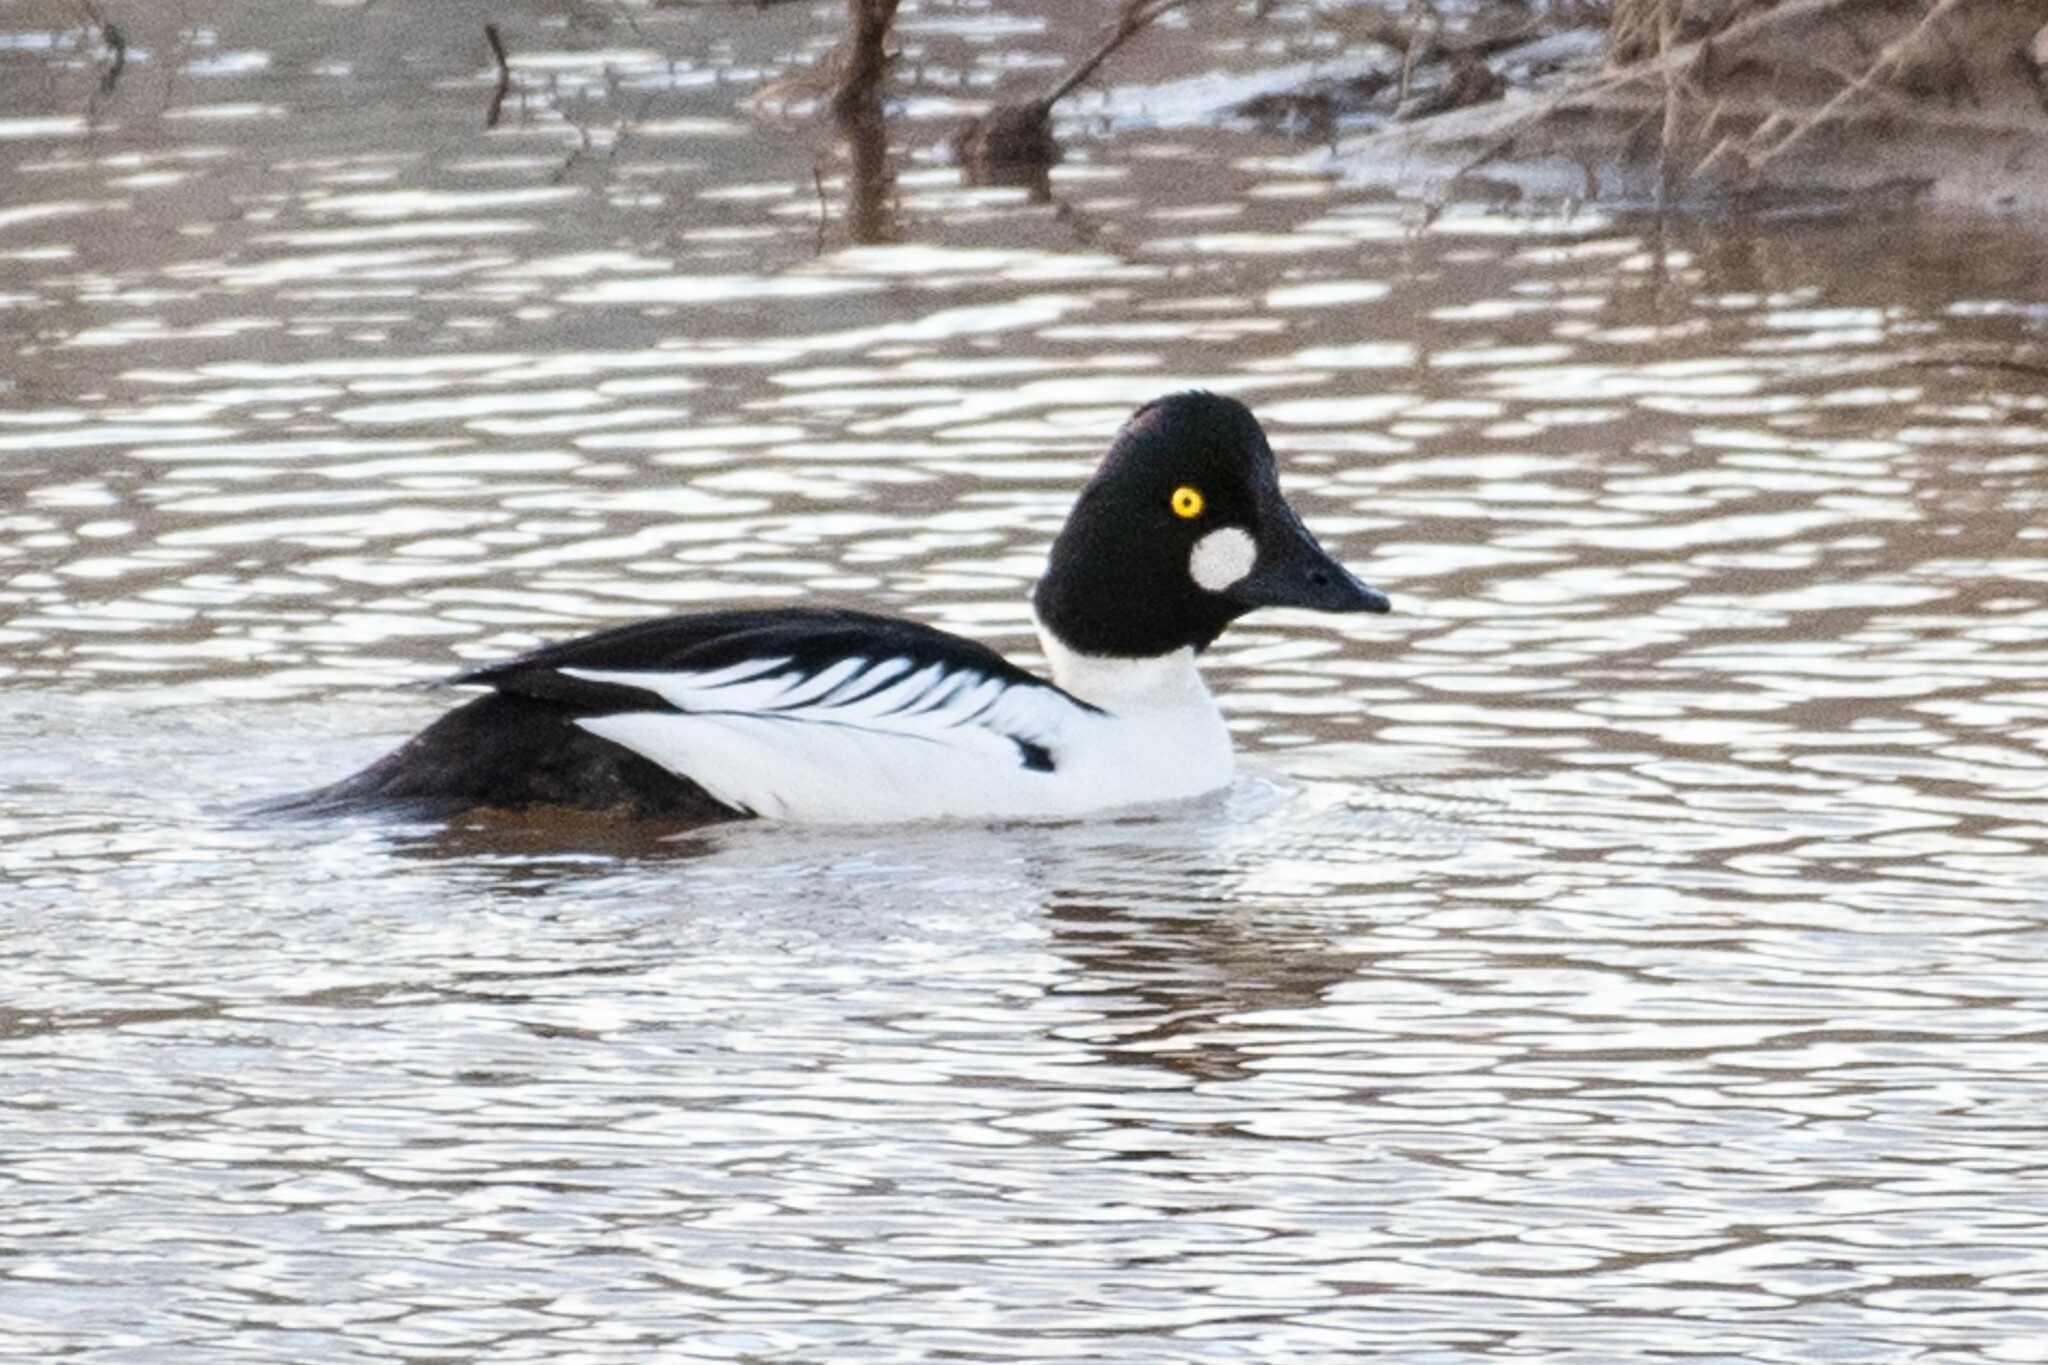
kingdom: Animalia
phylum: Chordata
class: Aves
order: Anseriformes
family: Anatidae
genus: Bucephala
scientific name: Bucephala clangula
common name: Common goldeneye
